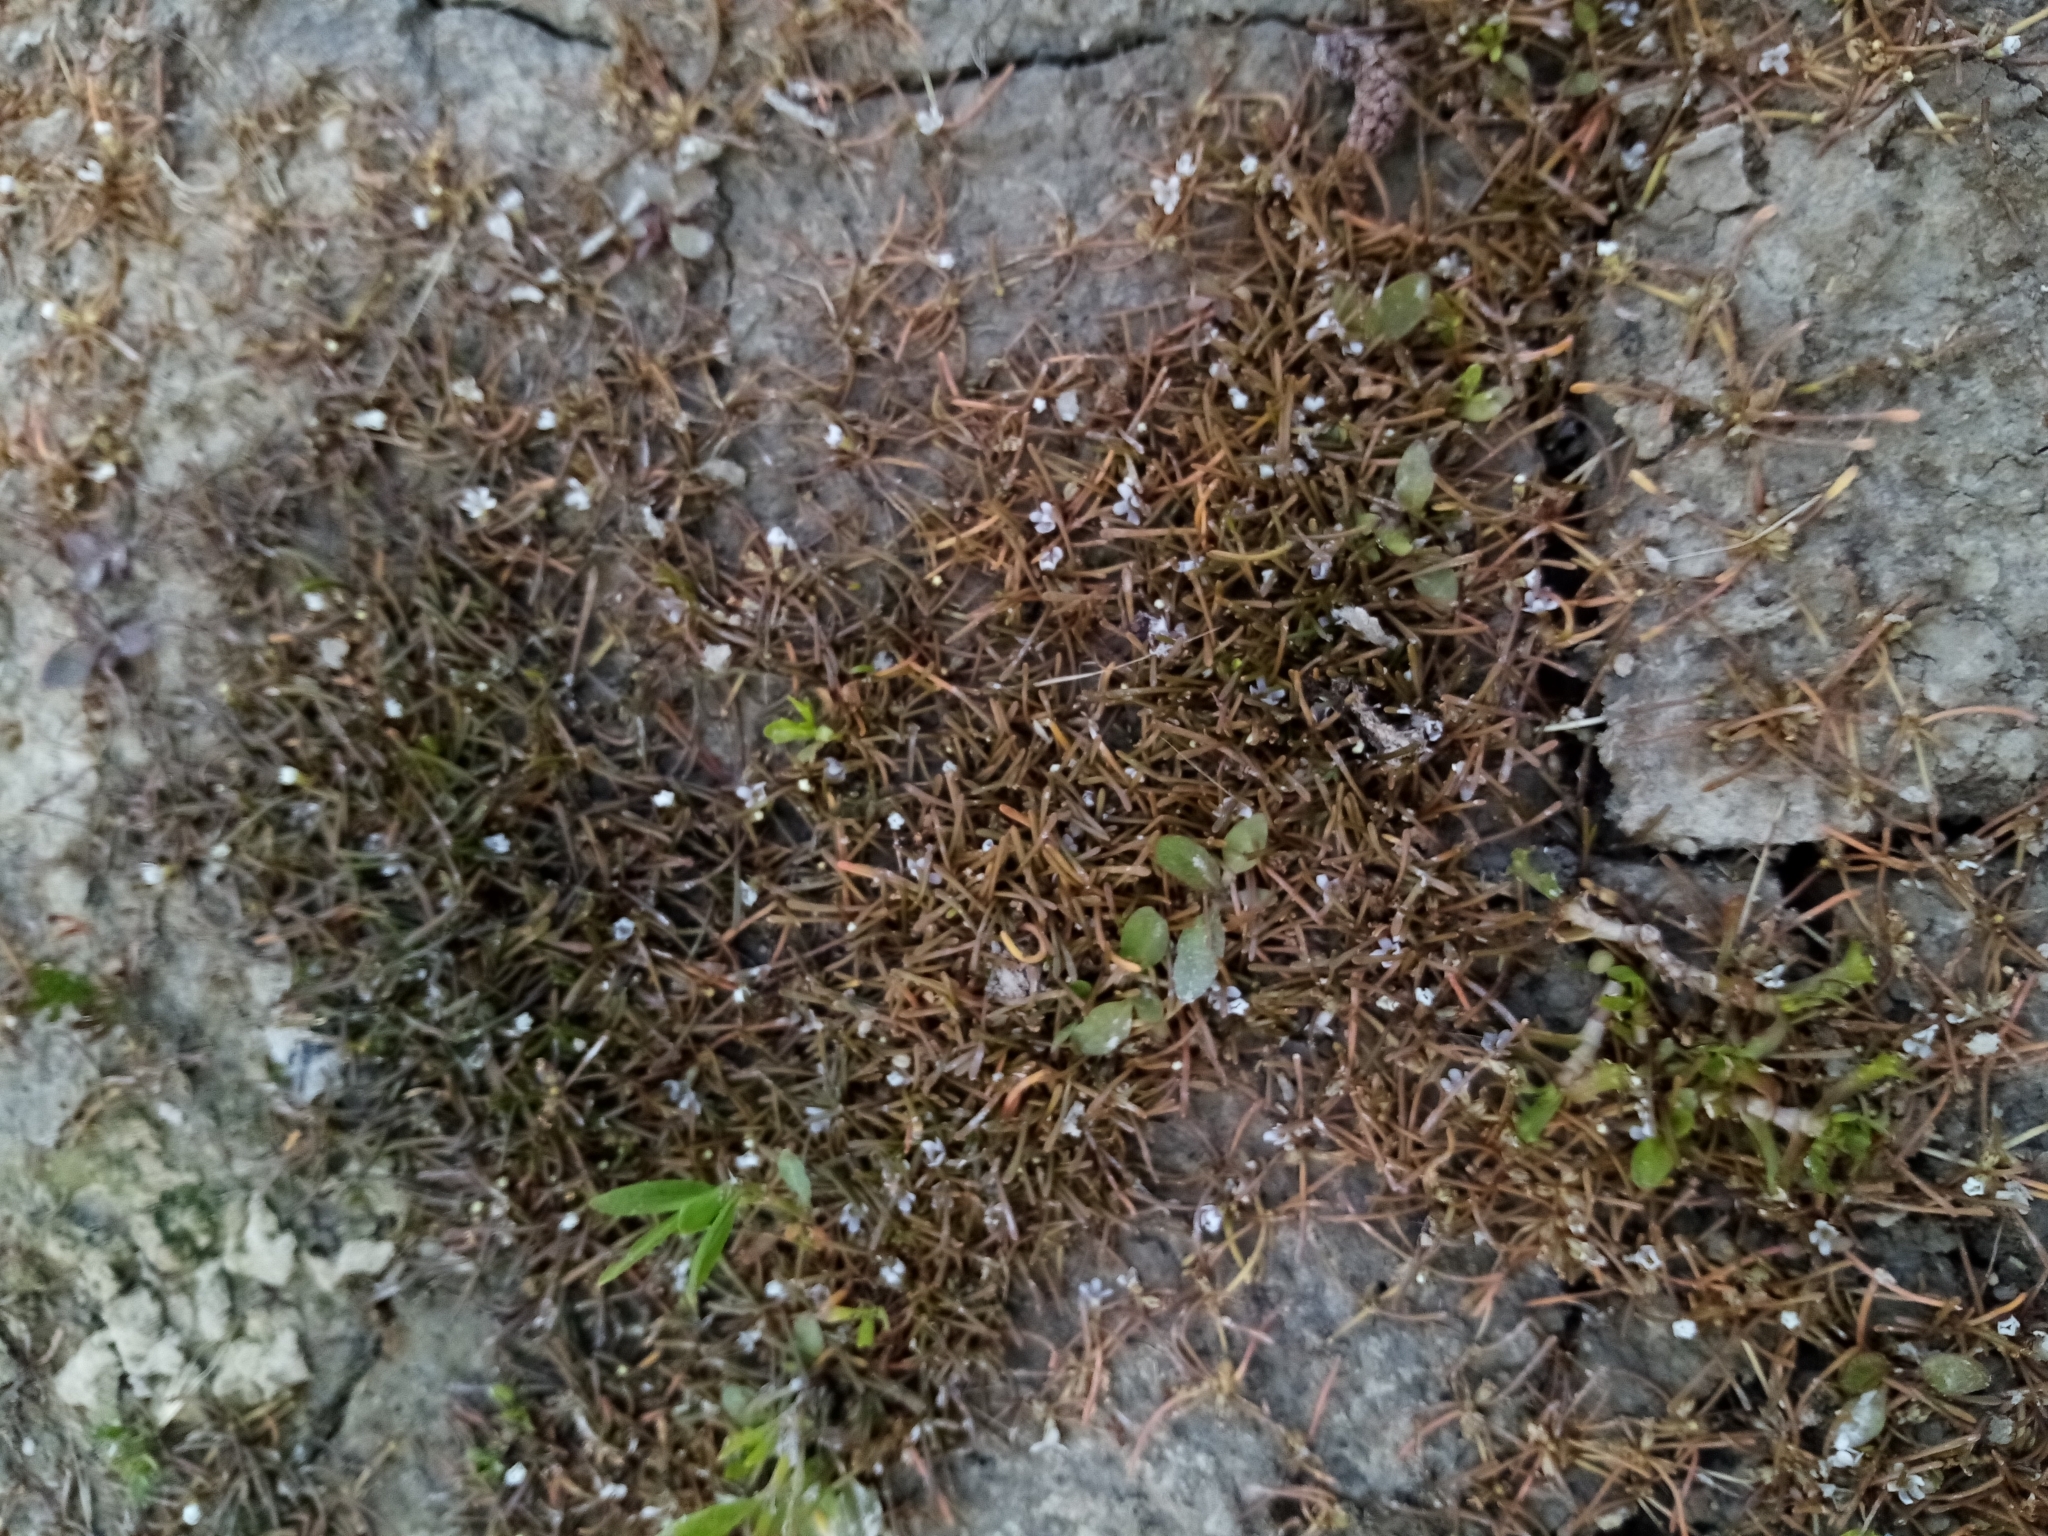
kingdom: Plantae
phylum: Tracheophyta
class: Magnoliopsida
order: Lamiales
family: Scrophulariaceae
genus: Limosella
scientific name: Limosella australis
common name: Welsh mudwort
